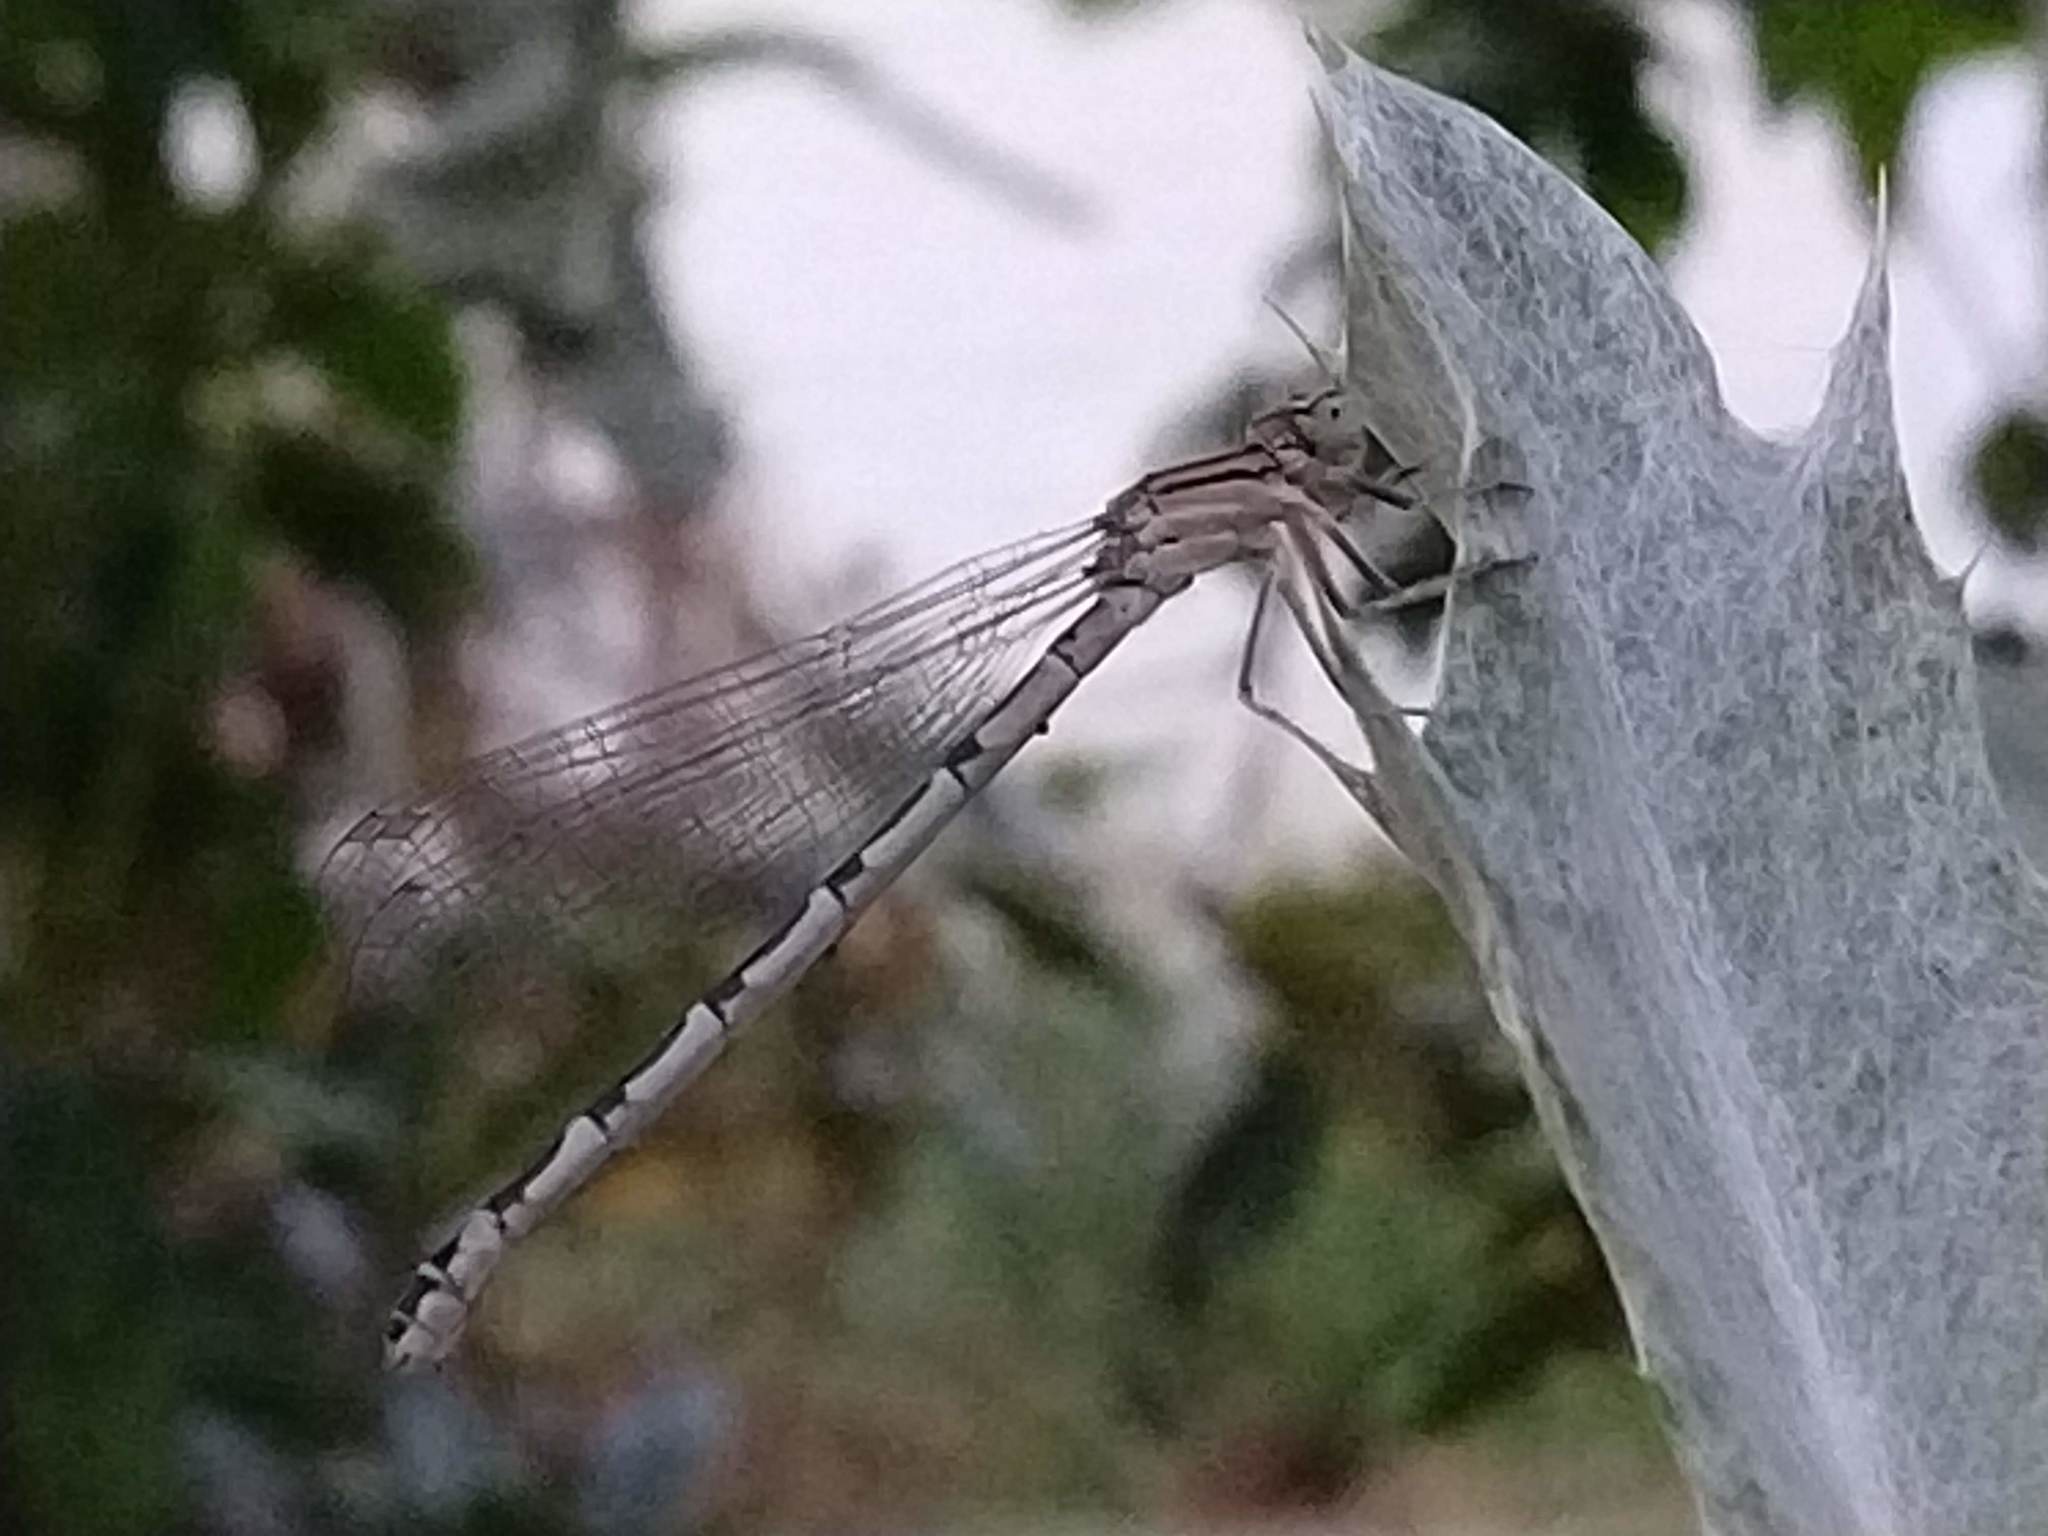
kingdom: Animalia
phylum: Arthropoda
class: Insecta
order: Odonata
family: Coenagrionidae
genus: Enallagma
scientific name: Enallagma cyathigerum
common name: Common blue damselfly
